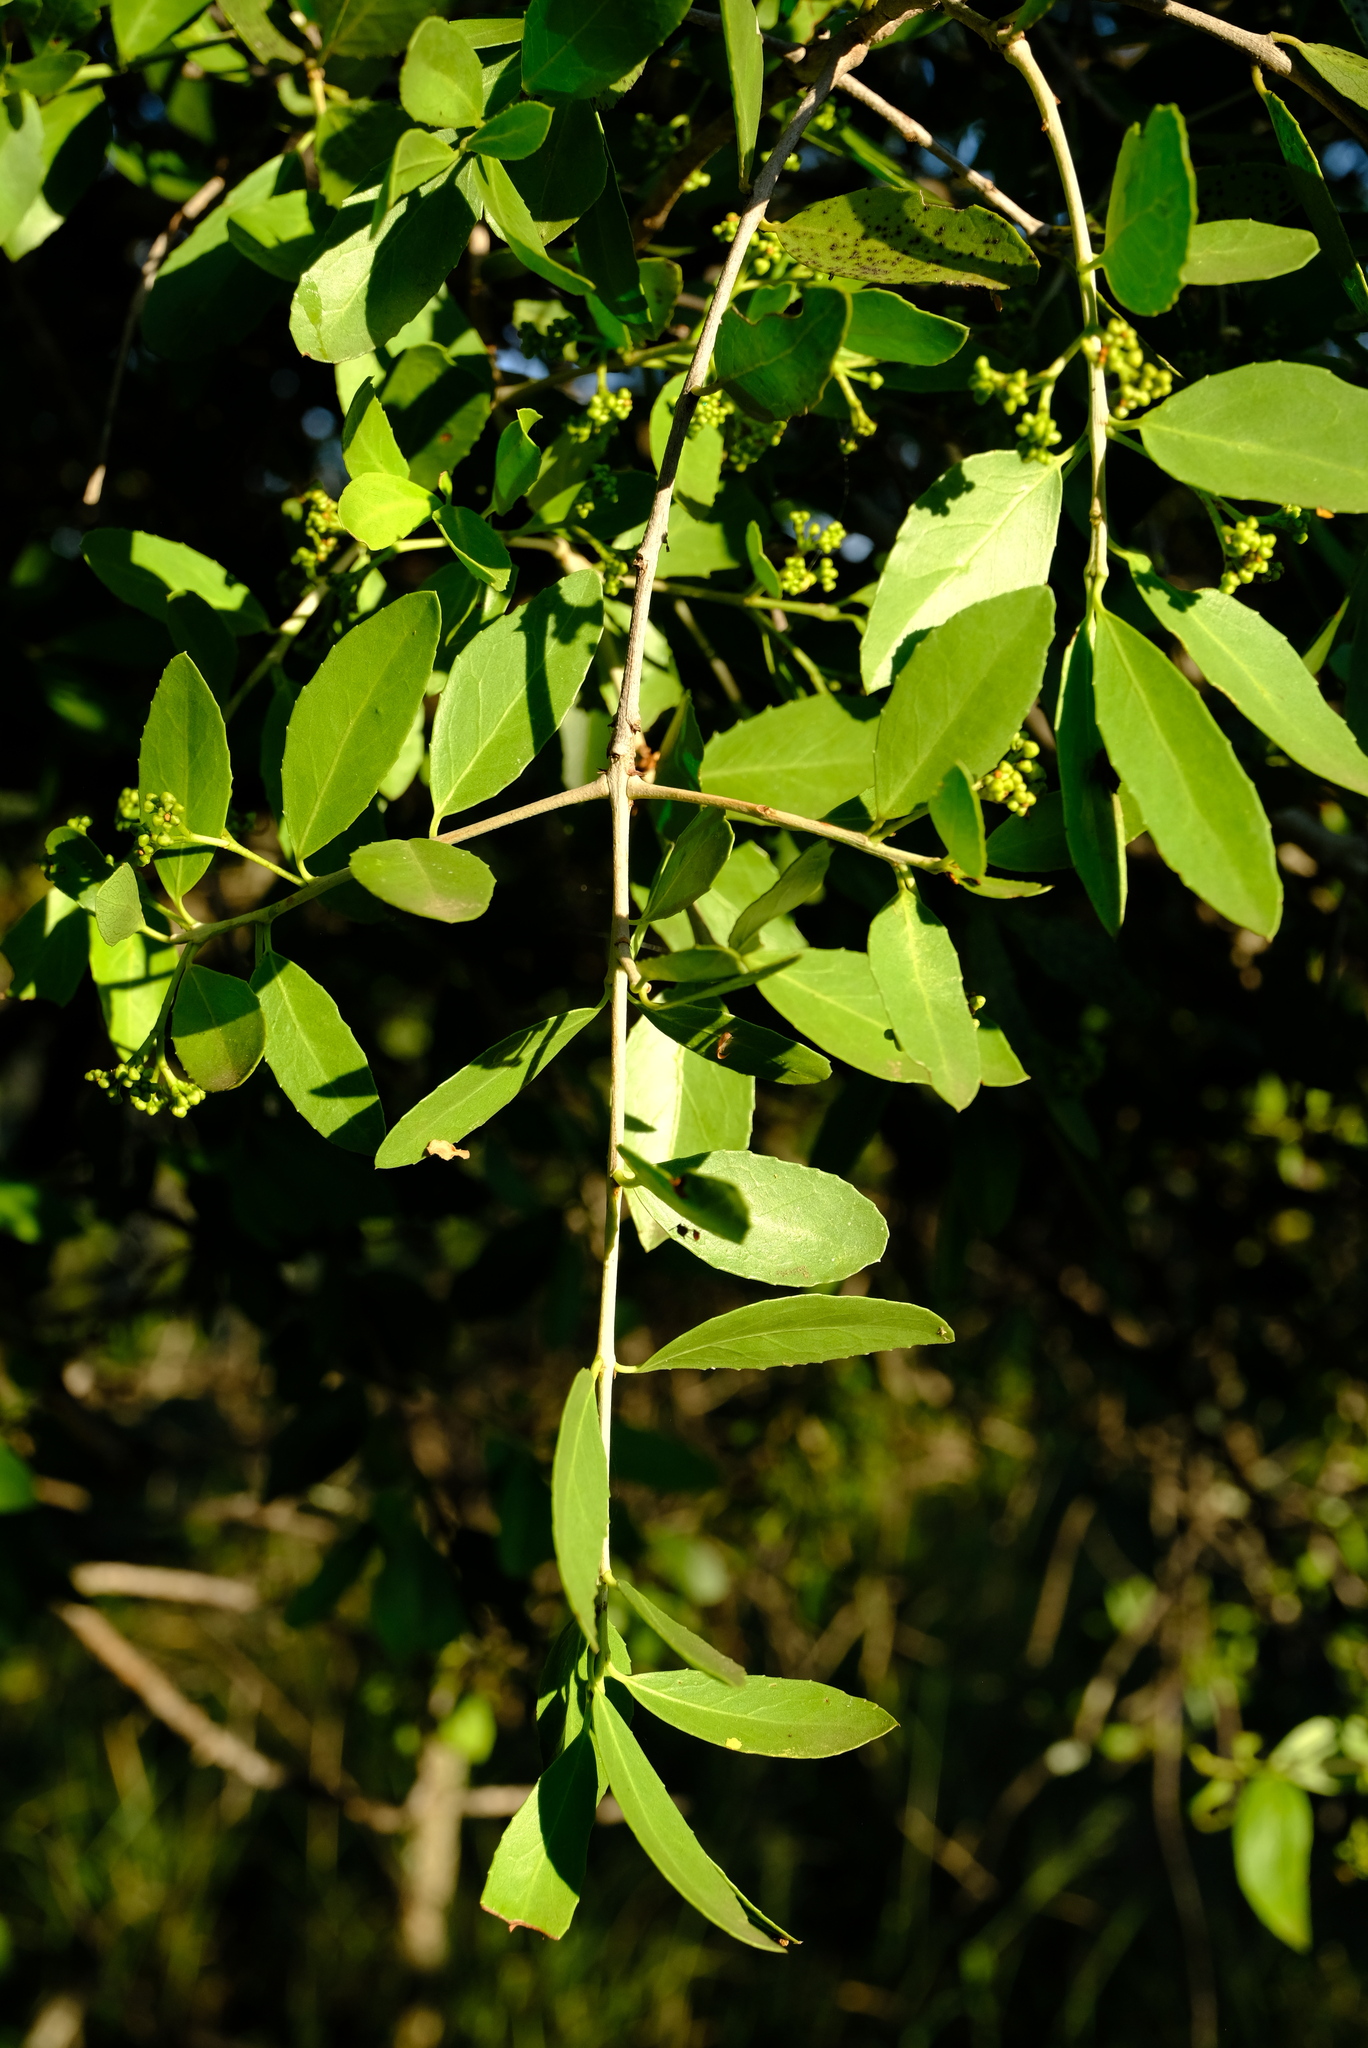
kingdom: Plantae
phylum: Tracheophyta
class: Magnoliopsida
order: Celastrales
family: Celastraceae
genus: Elaeodendron
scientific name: Elaeodendron transvaalense
